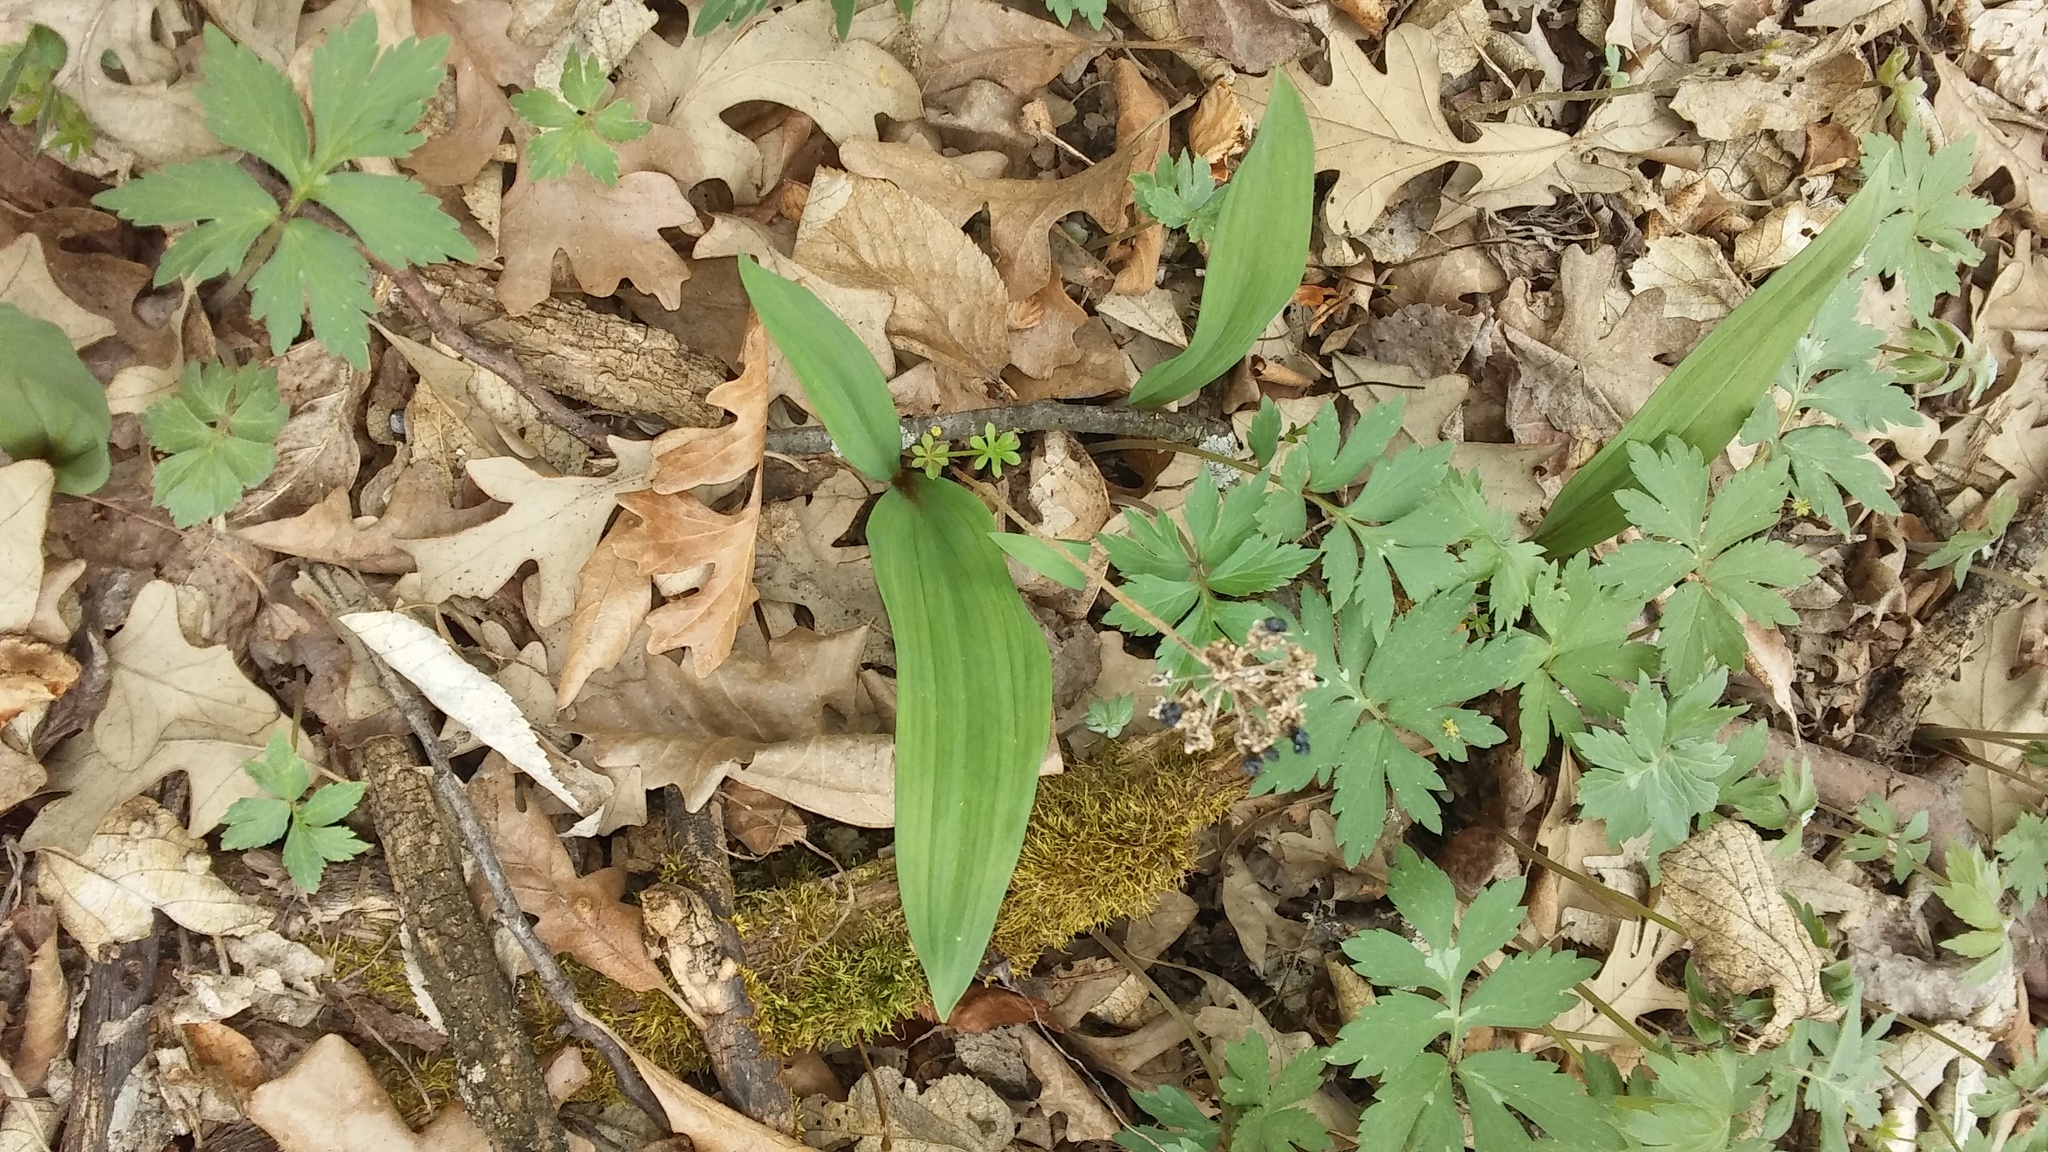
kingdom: Plantae
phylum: Tracheophyta
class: Liliopsida
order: Asparagales
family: Amaryllidaceae
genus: Allium
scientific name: Allium tricoccum
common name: Ramp
